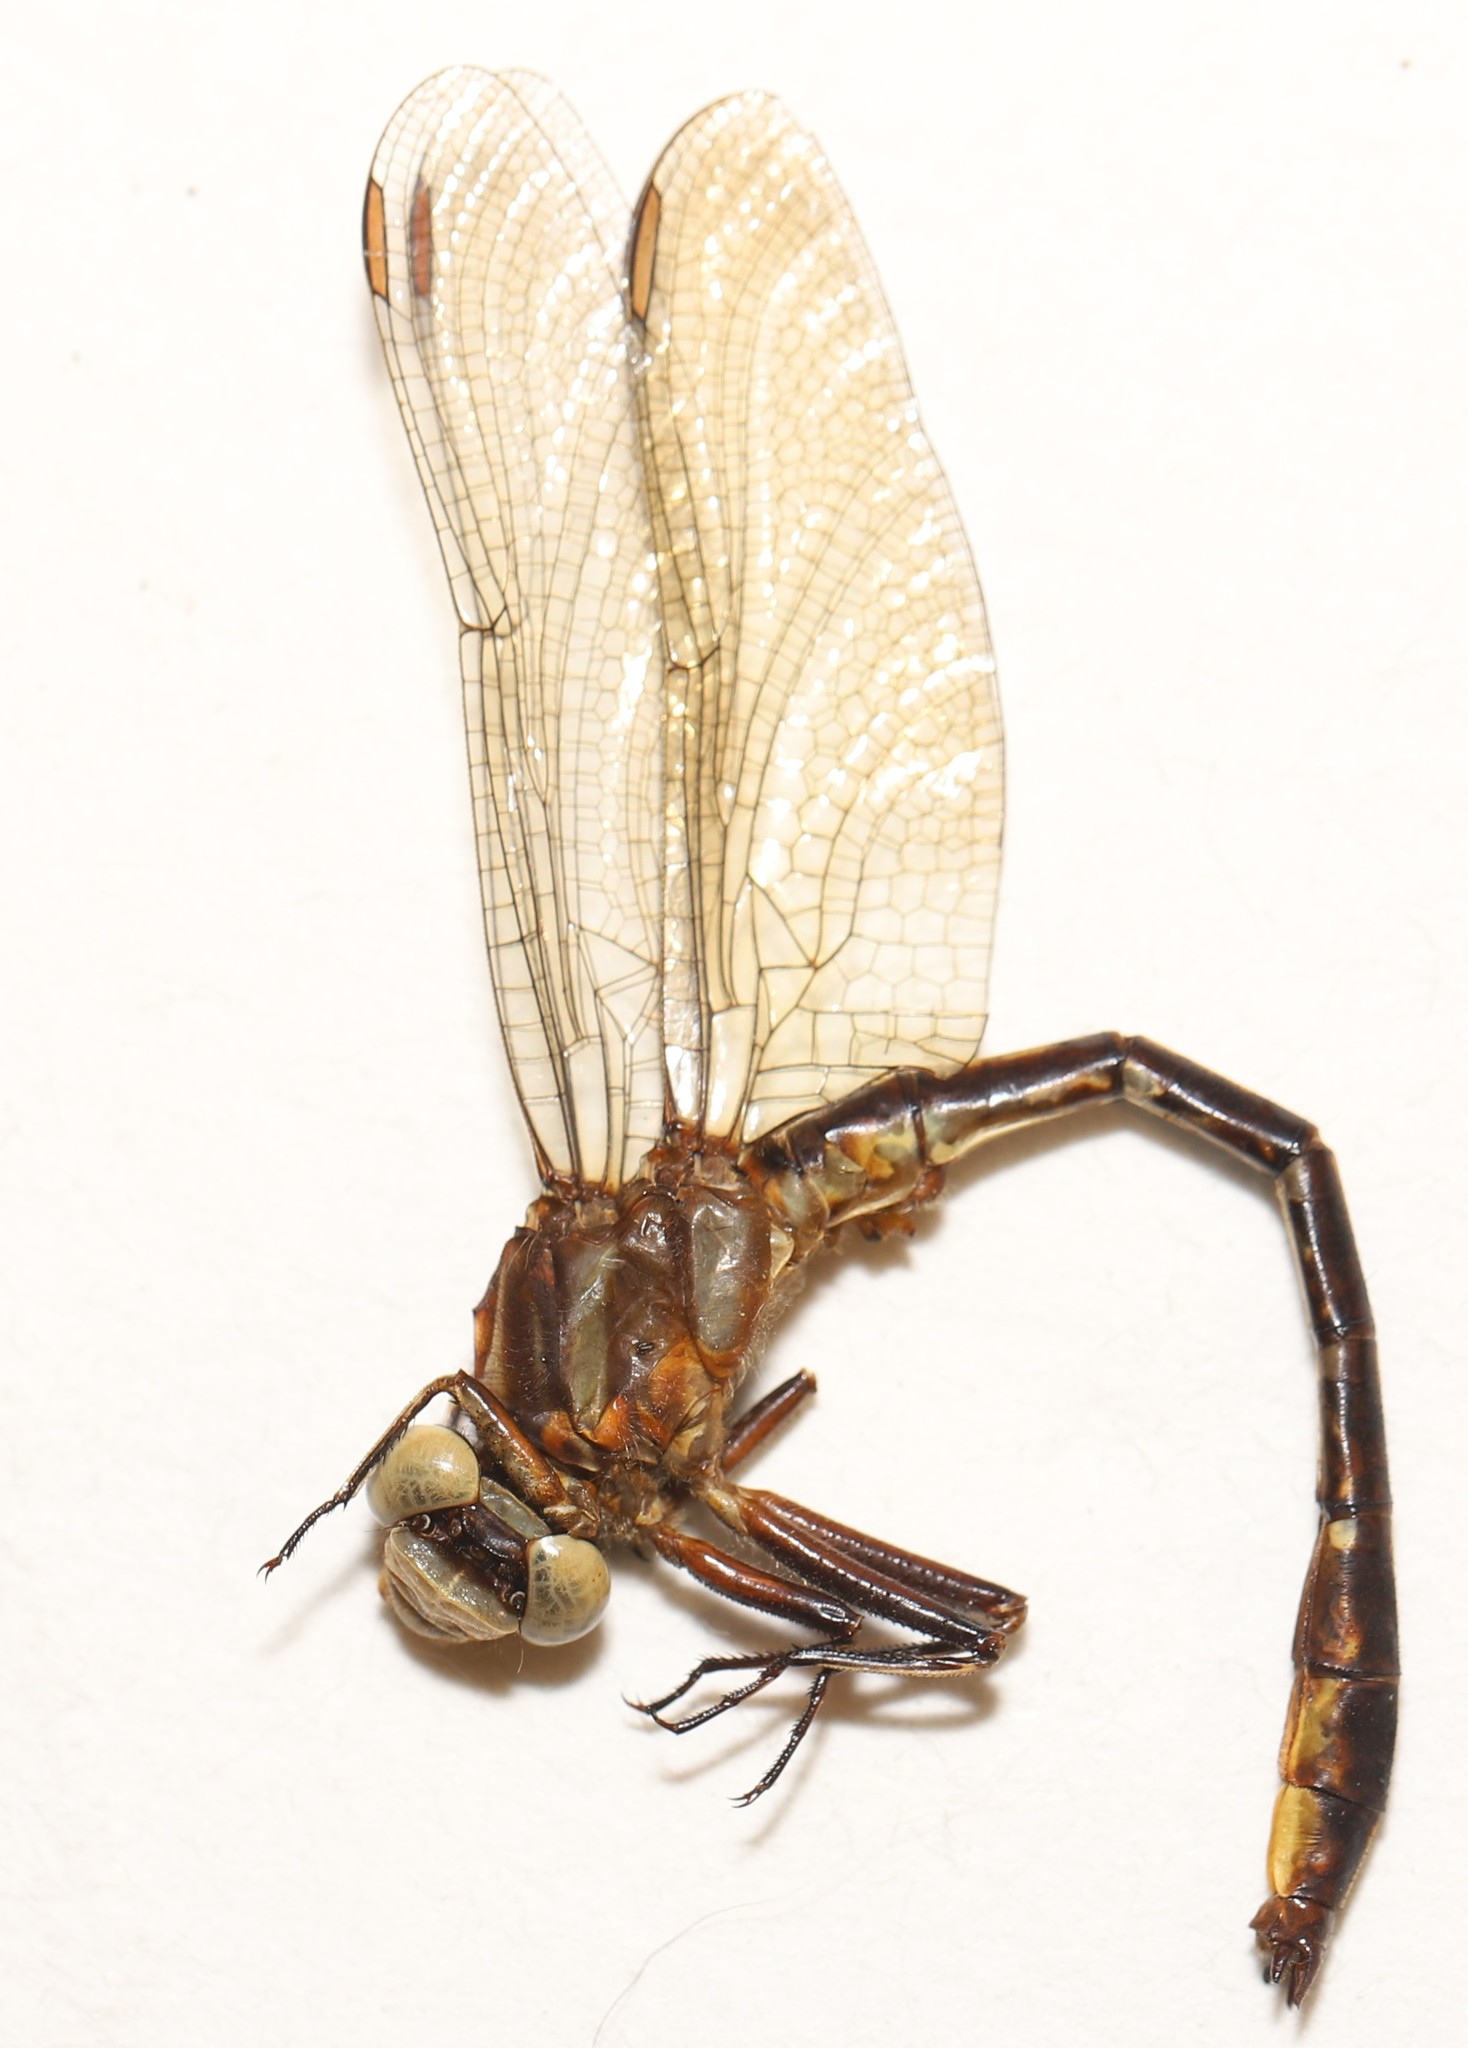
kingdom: Animalia
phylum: Arthropoda
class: Insecta
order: Odonata
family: Gomphidae
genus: Phanogomphus
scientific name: Phanogomphus exilis
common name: Lancet clubtail
